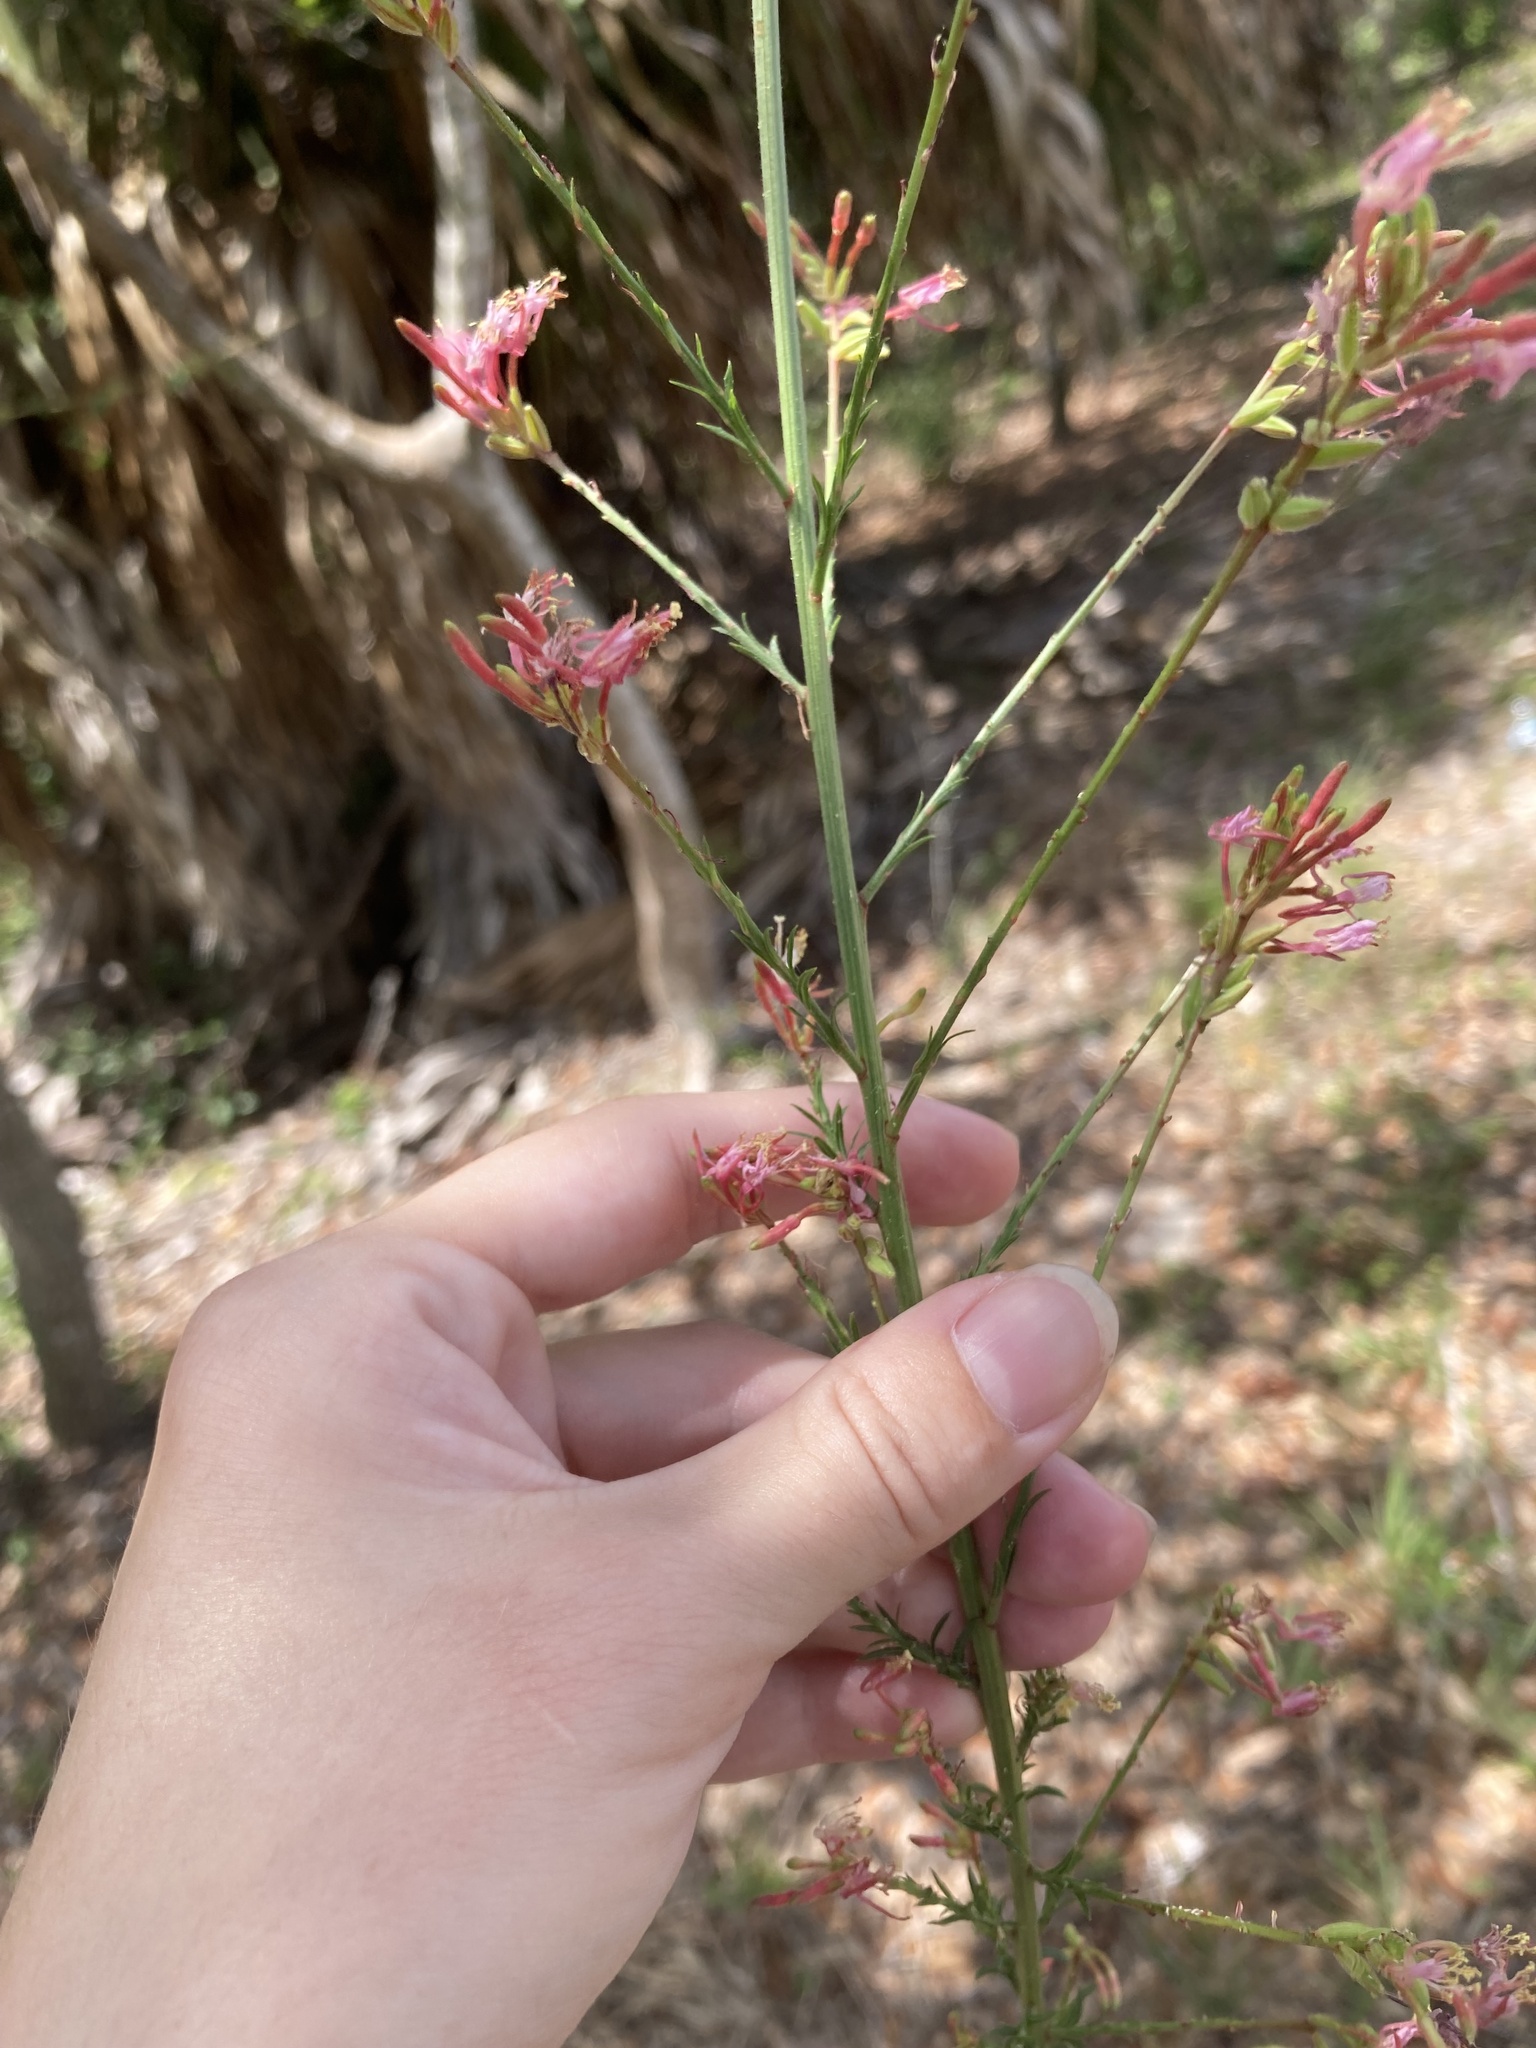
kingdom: Plantae
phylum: Tracheophyta
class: Magnoliopsida
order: Myrtales
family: Onagraceae
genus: Oenothera
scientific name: Oenothera simulans
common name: Southern beeblossom
